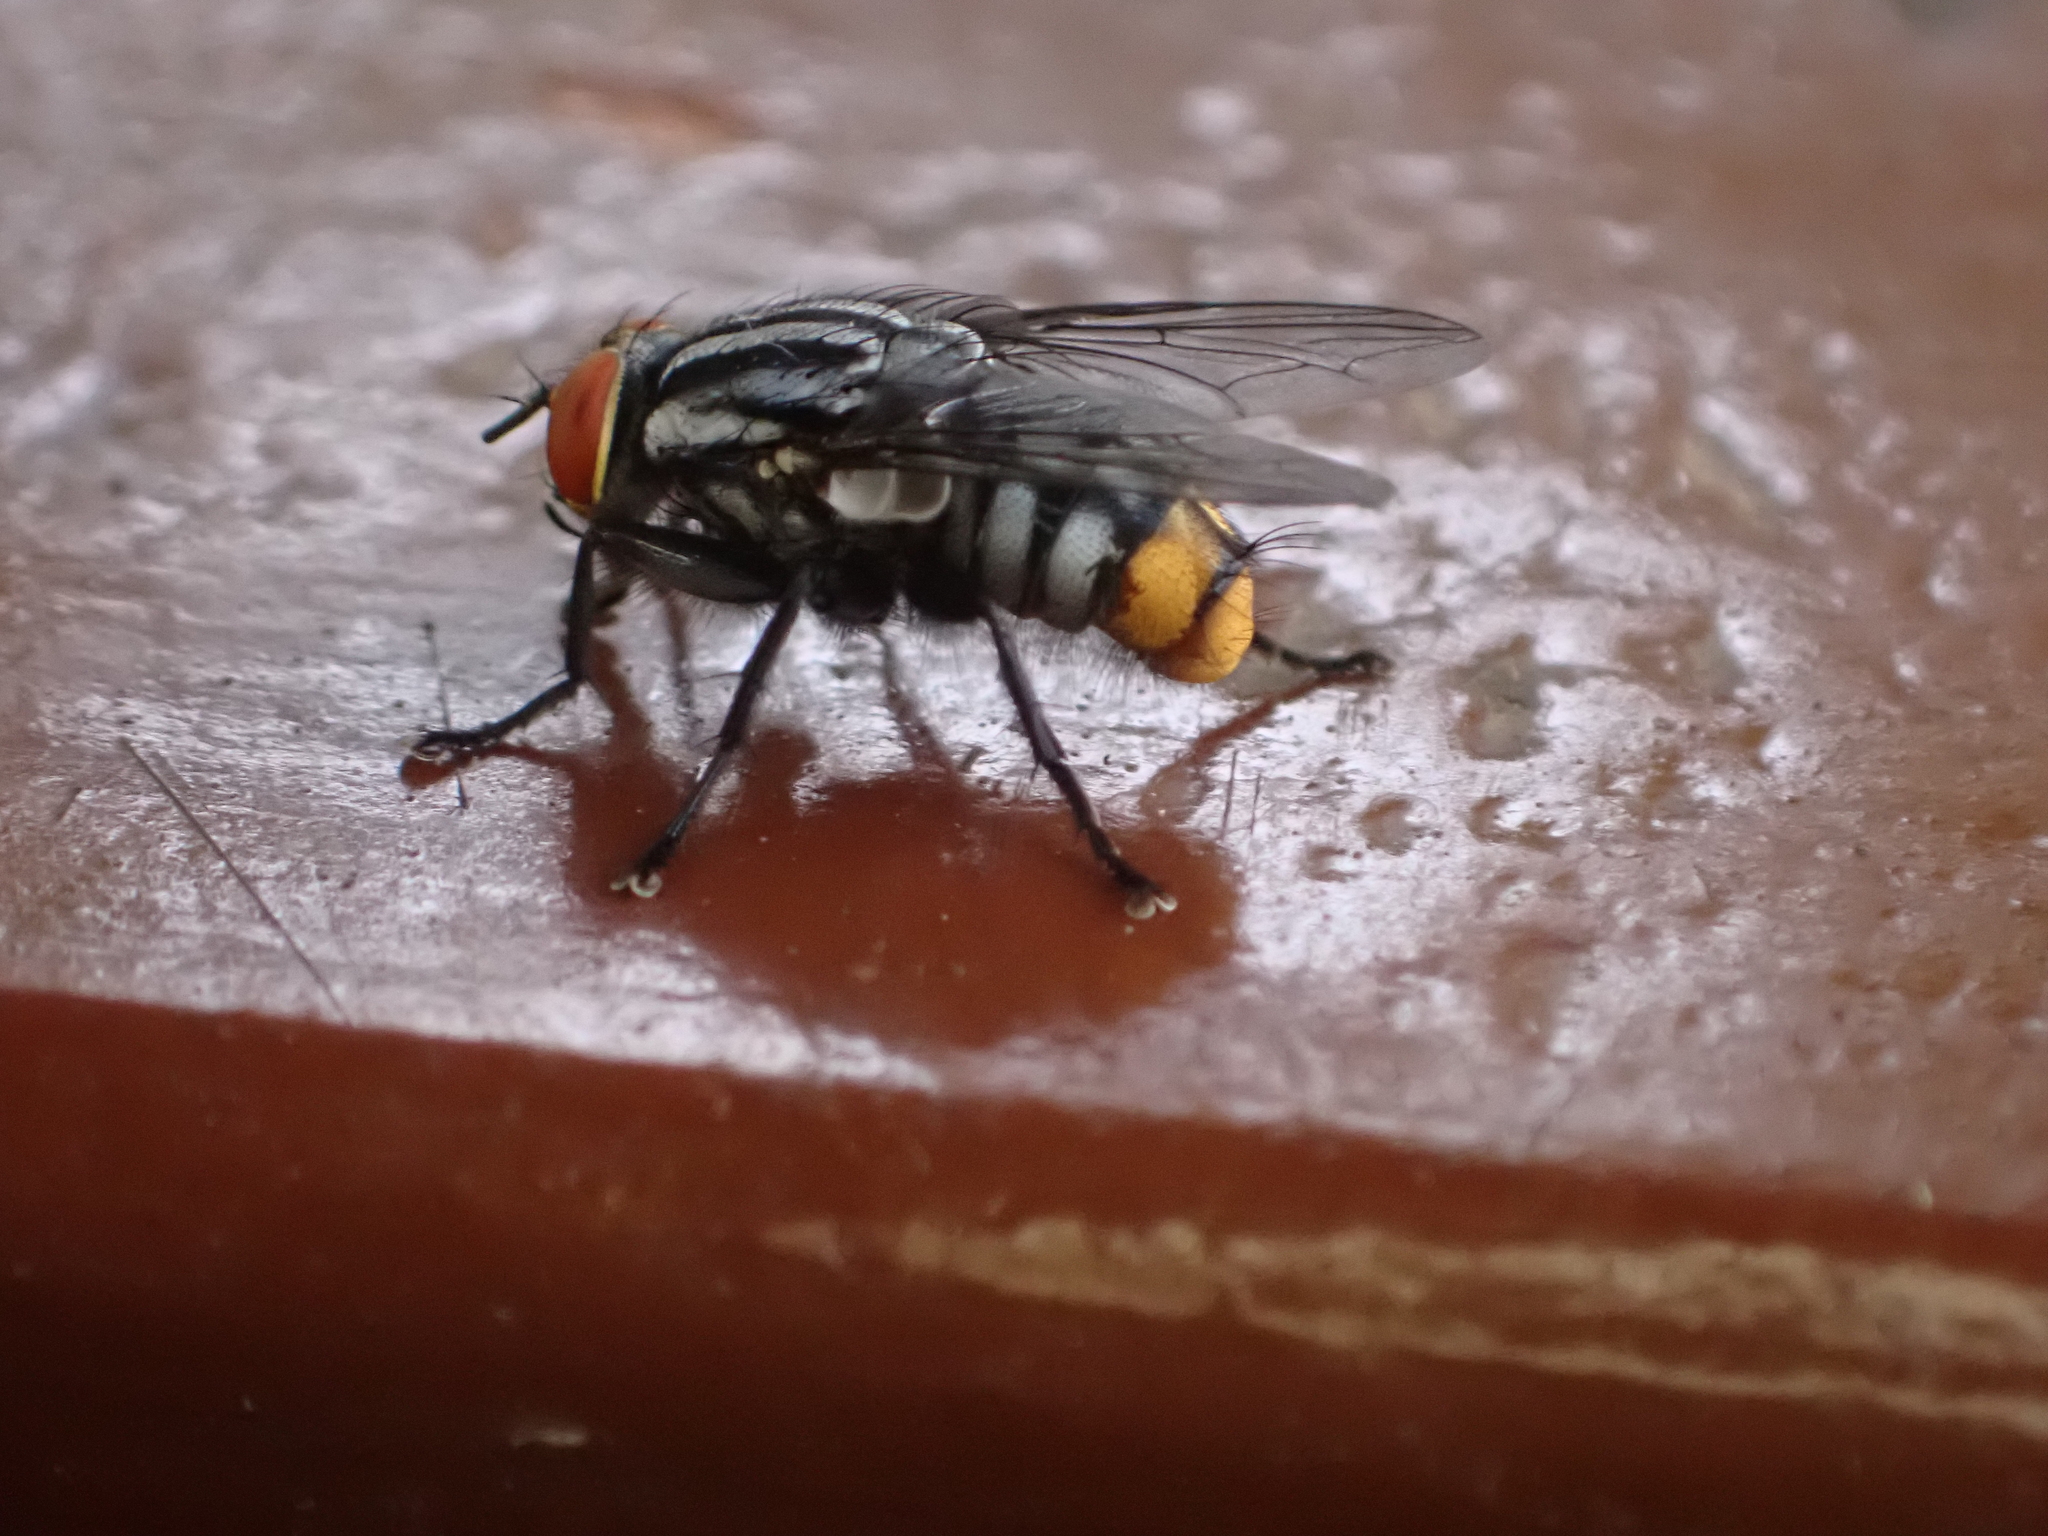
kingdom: Animalia
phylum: Arthropoda
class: Insecta
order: Diptera
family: Sarcophagidae
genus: Oxysarcodexia
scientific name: Oxysarcodexia aurata
